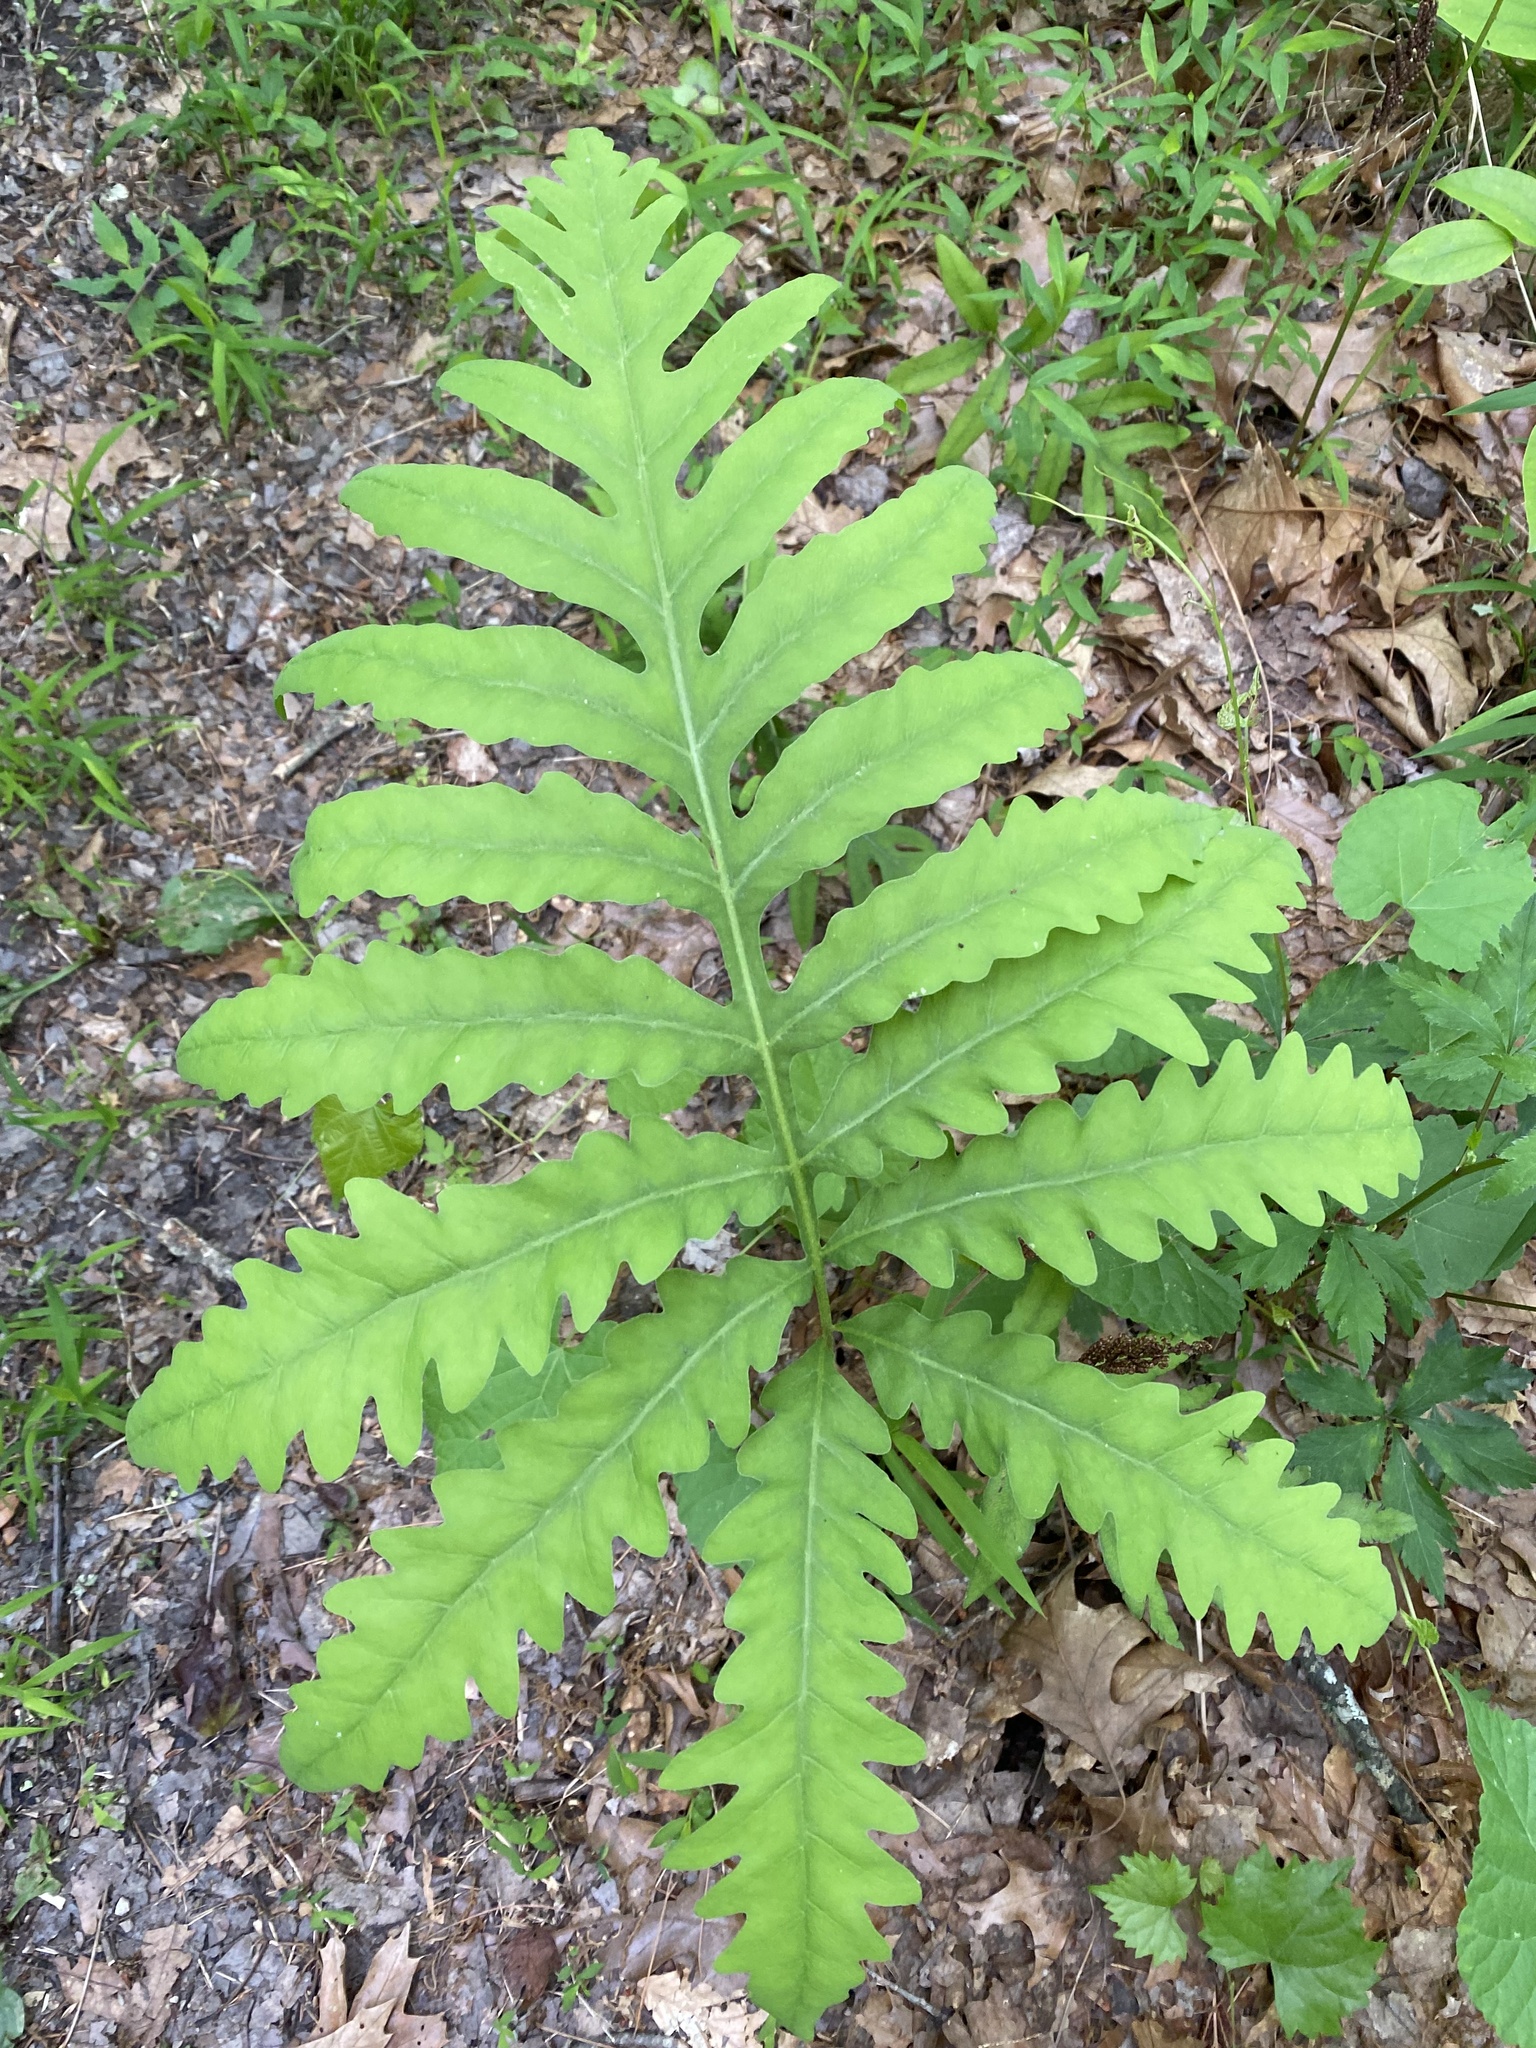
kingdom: Plantae
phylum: Tracheophyta
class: Polypodiopsida
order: Polypodiales
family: Onocleaceae
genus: Onoclea
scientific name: Onoclea sensibilis
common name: Sensitive fern
